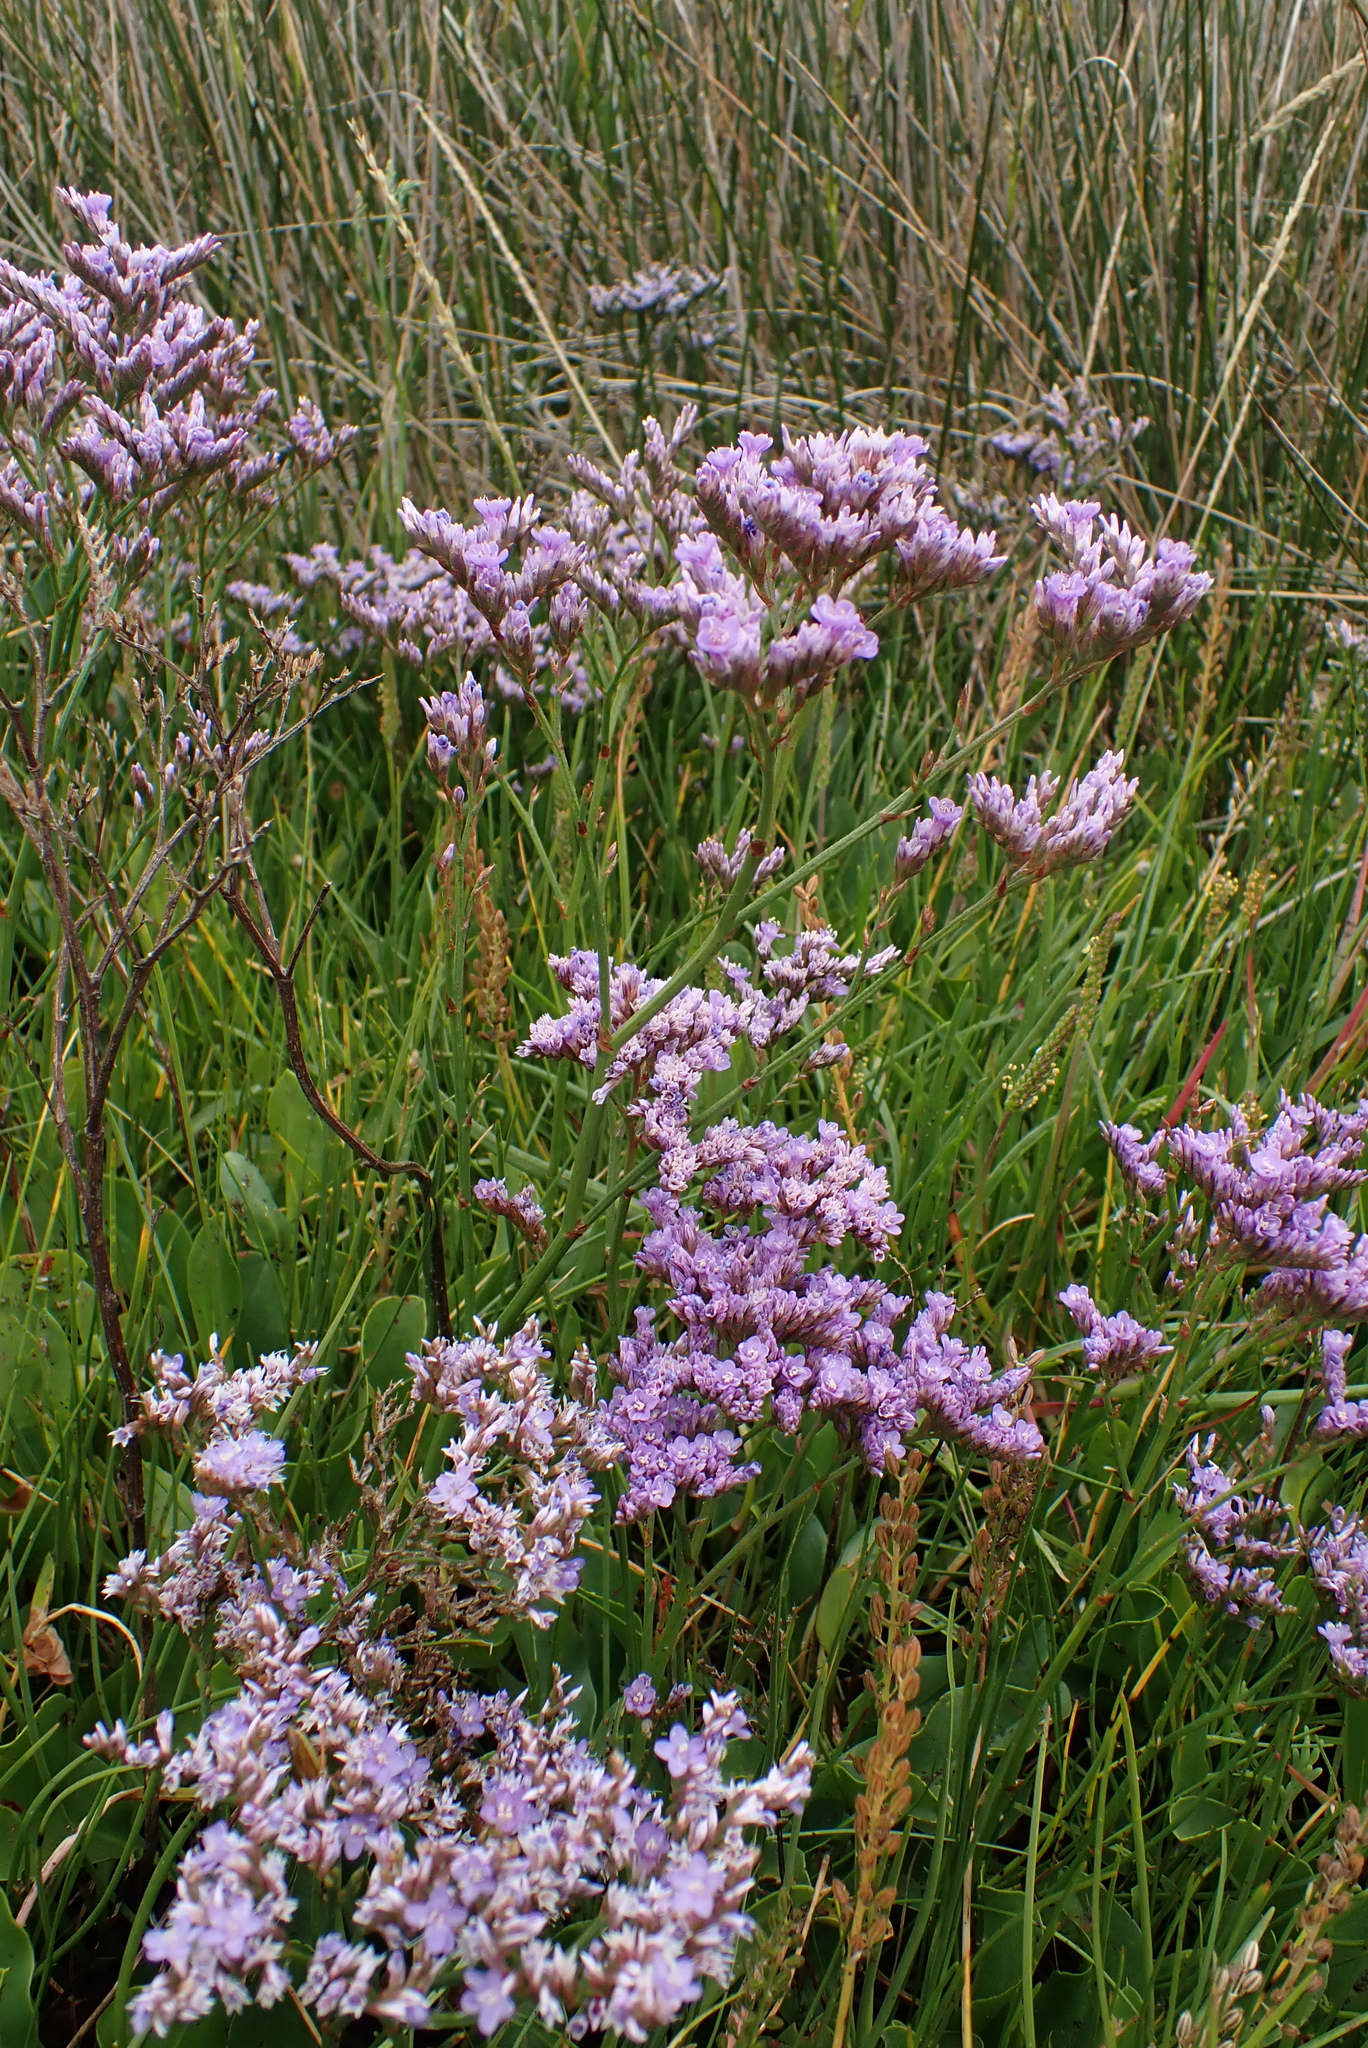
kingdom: Plantae
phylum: Tracheophyta
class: Magnoliopsida
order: Caryophyllales
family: Plumbaginaceae
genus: Limonium
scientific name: Limonium vulgare
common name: Common sea-lavender
